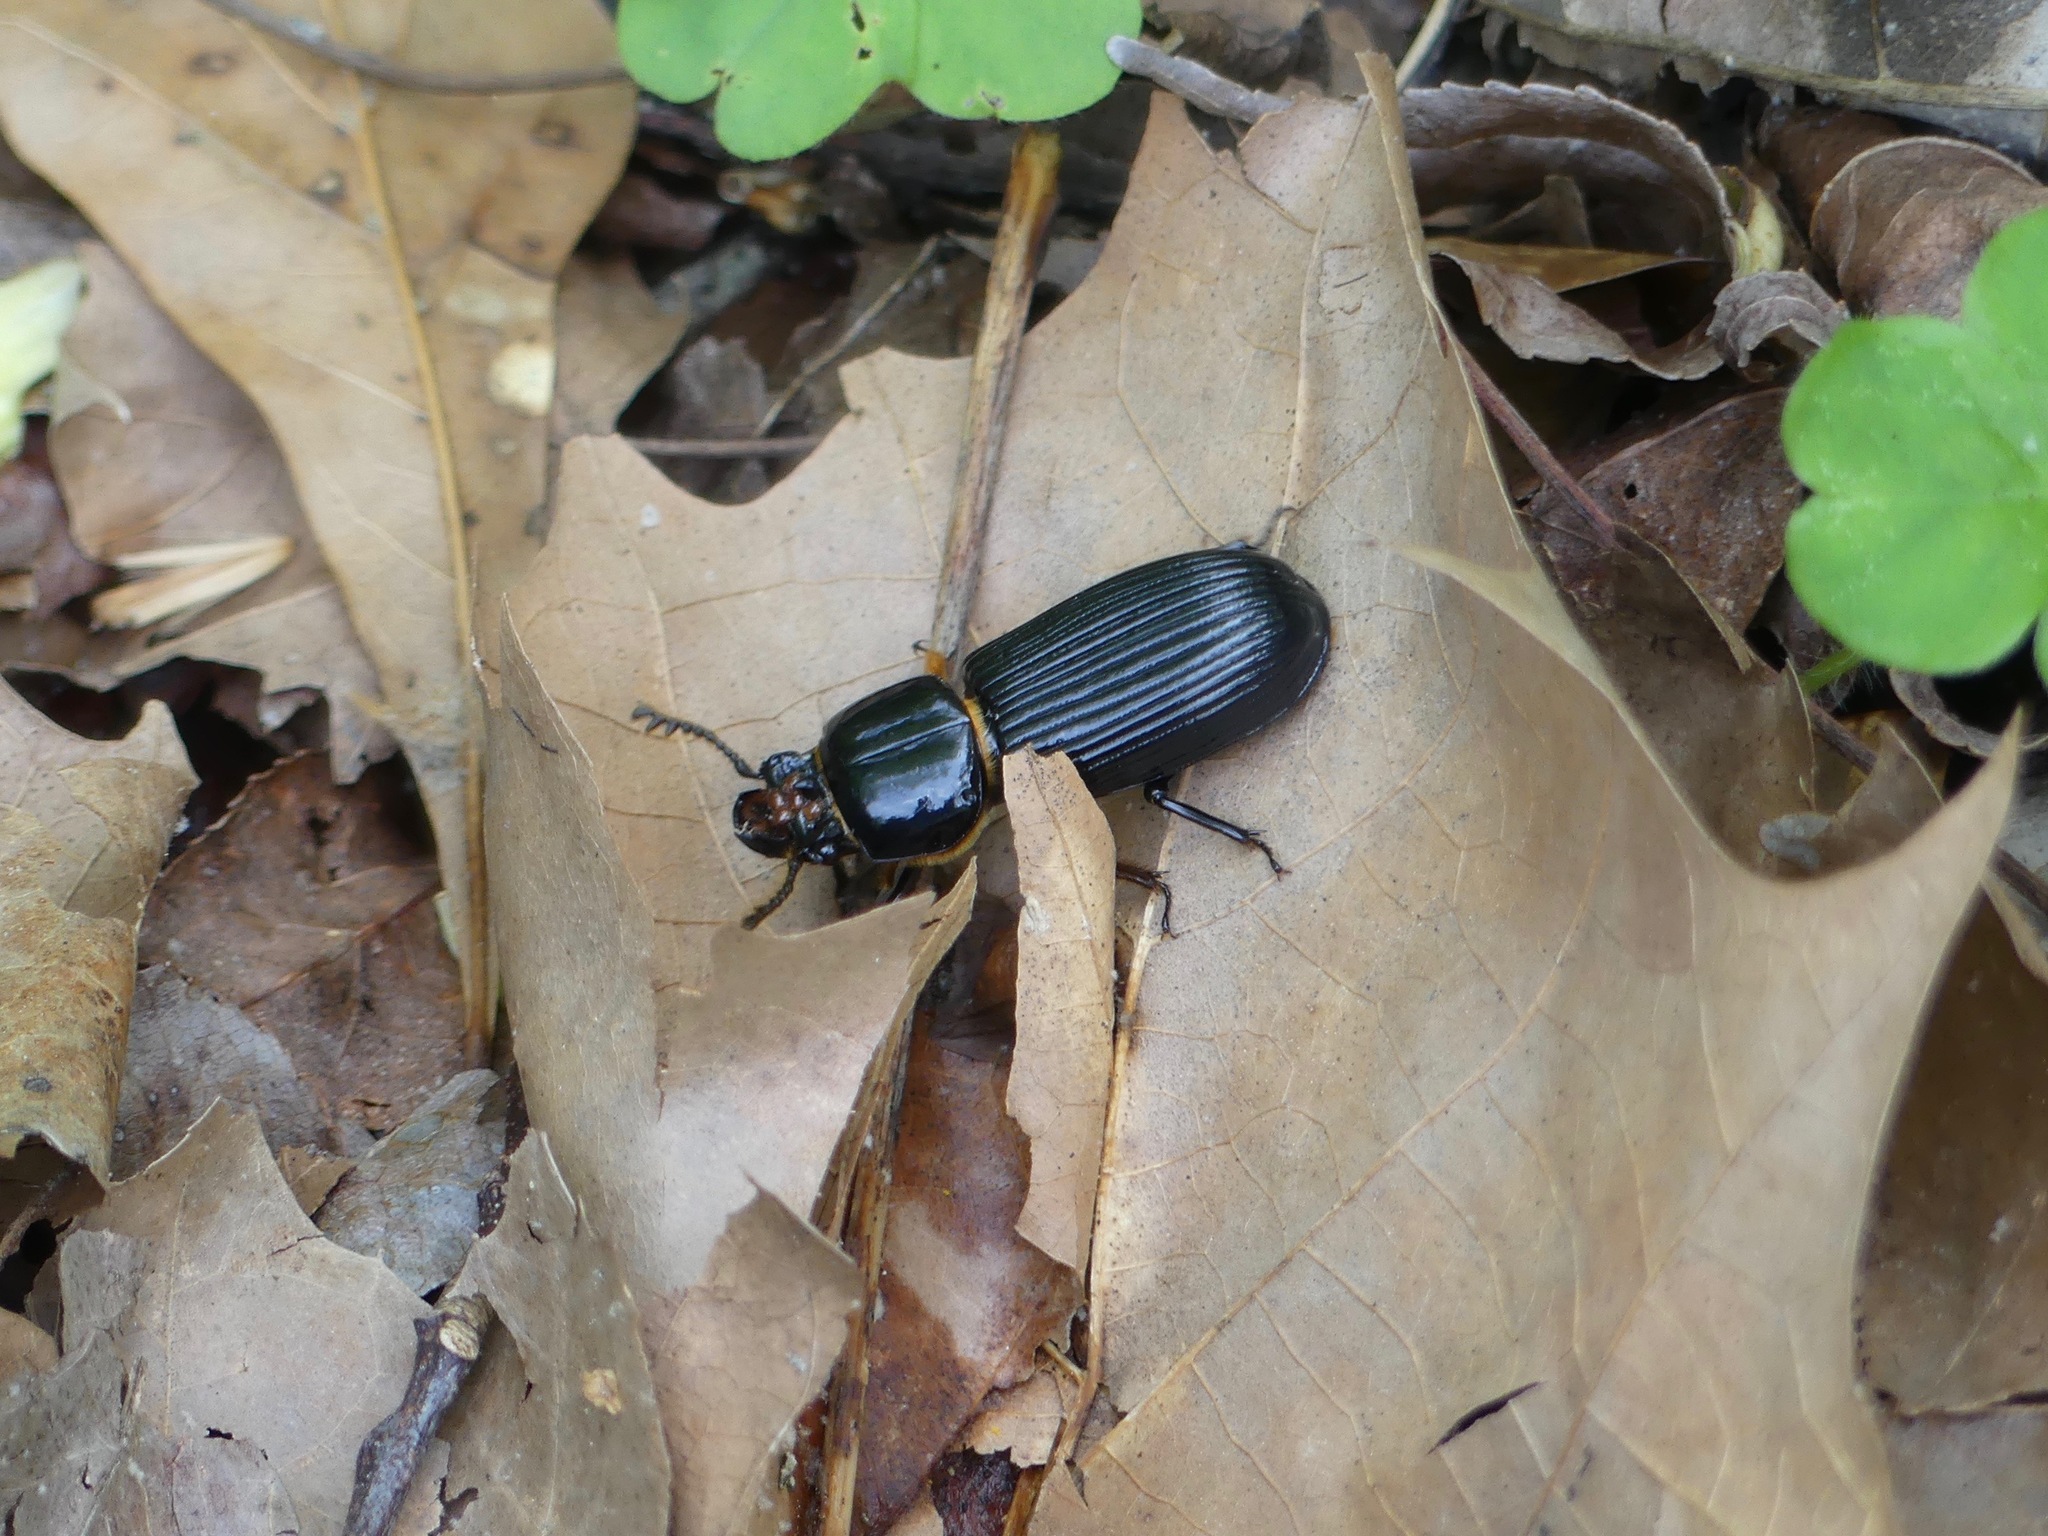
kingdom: Animalia
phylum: Arthropoda
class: Insecta
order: Coleoptera
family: Passalidae
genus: Odontotaenius
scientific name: Odontotaenius disjunctus
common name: Patent leather beetle
